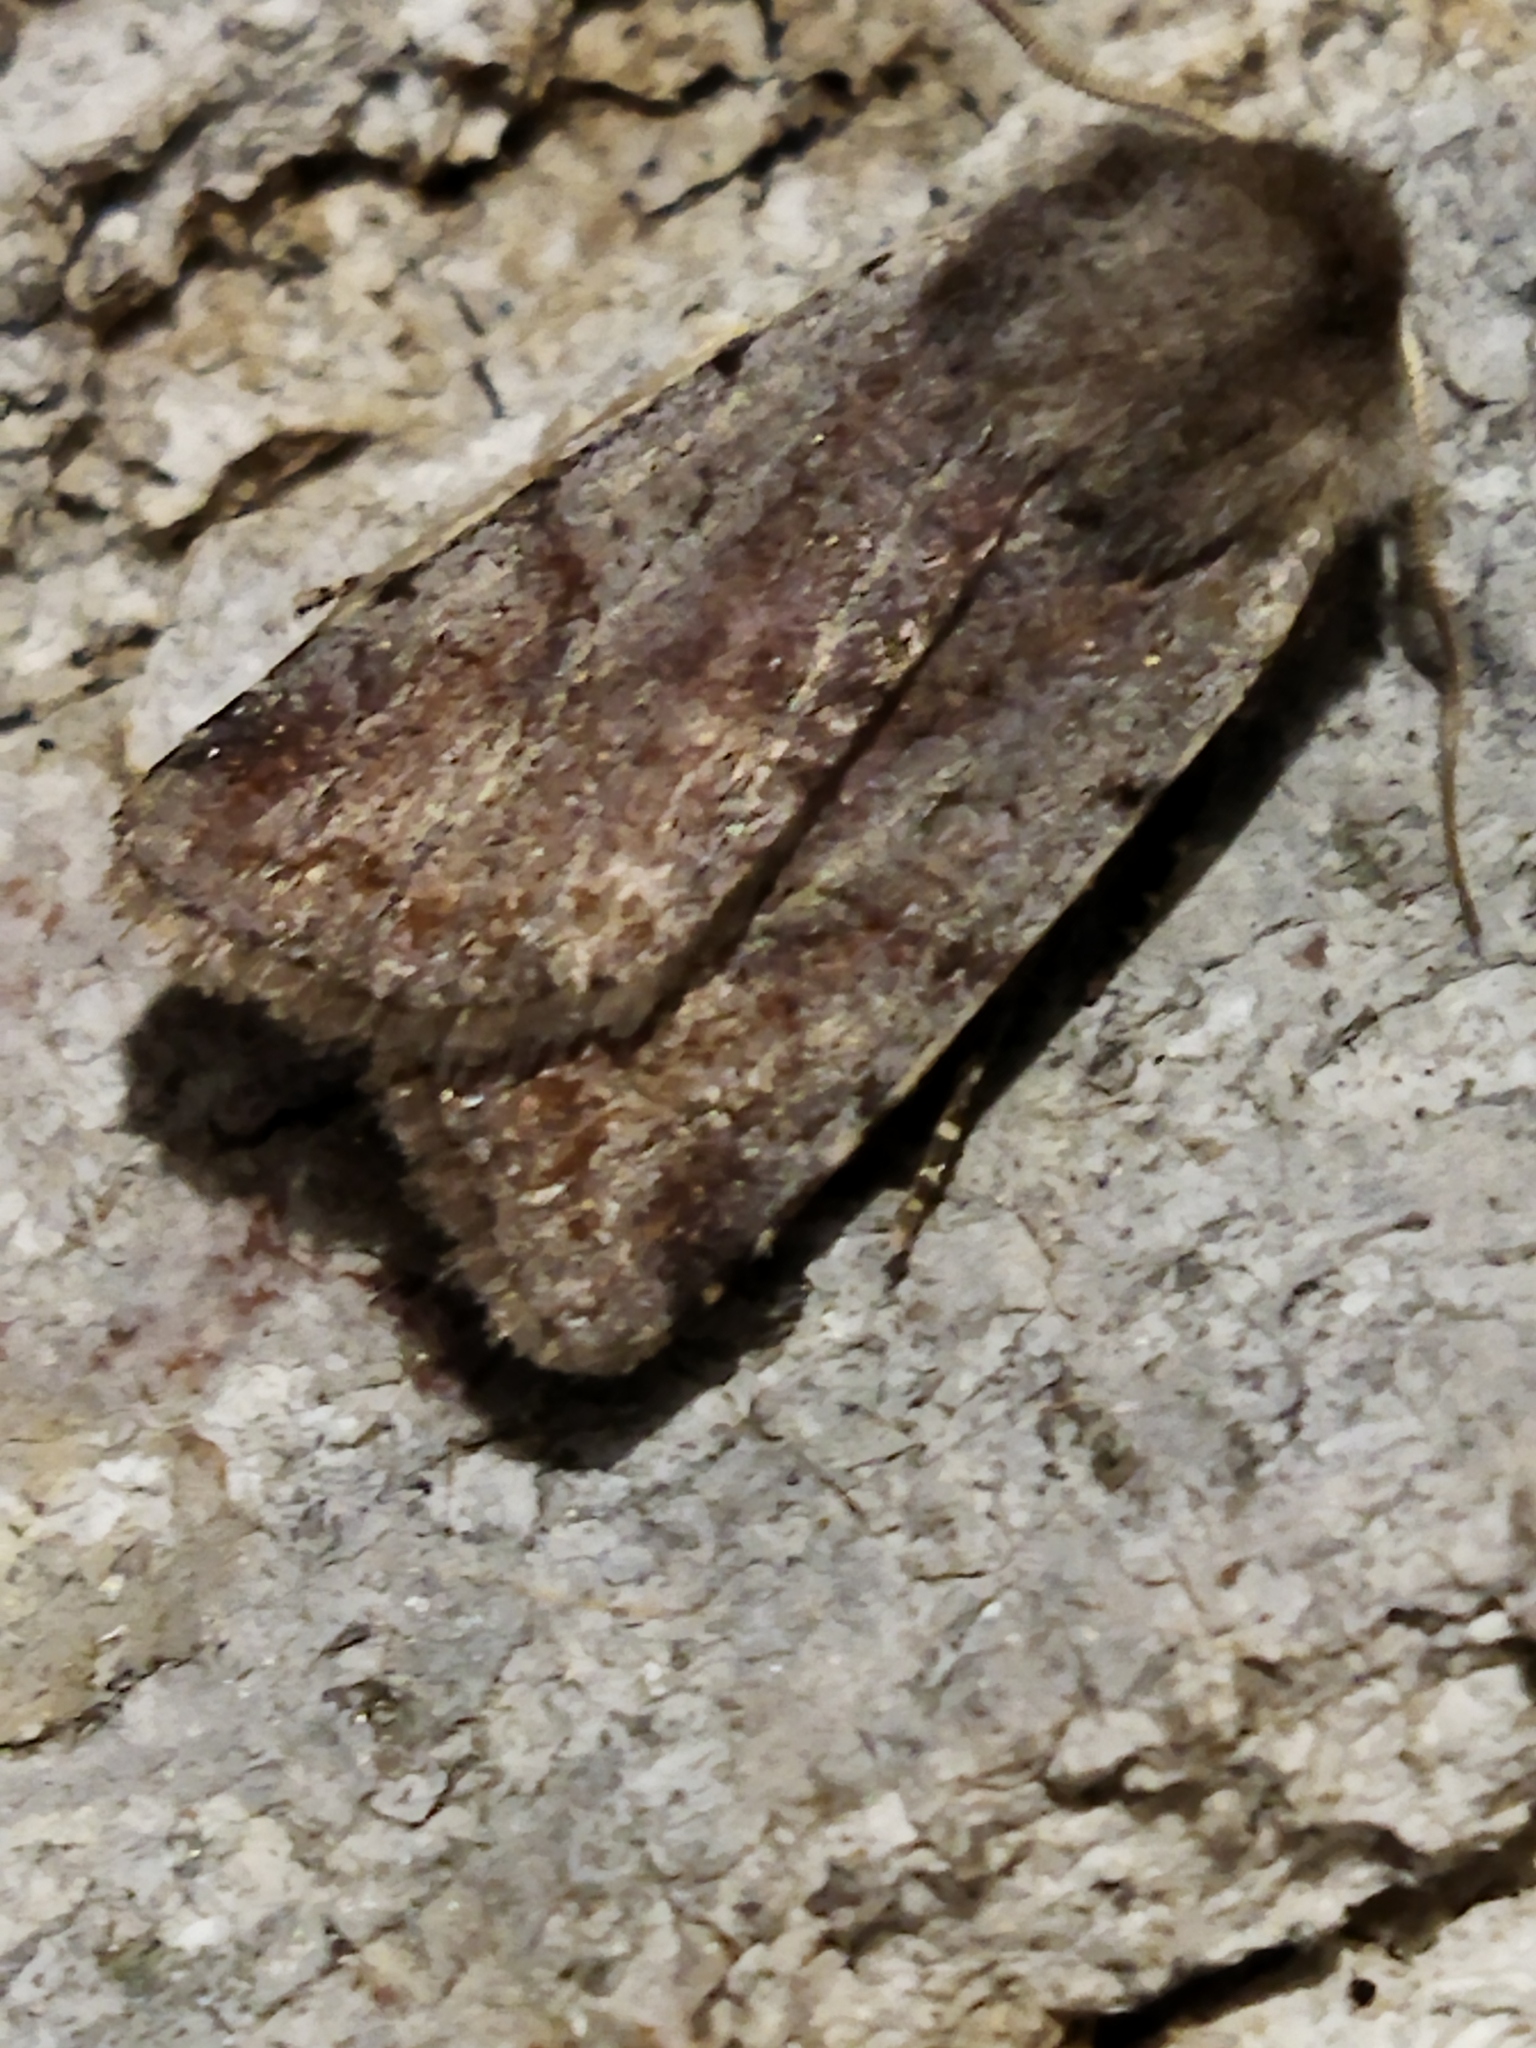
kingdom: Animalia
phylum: Arthropoda
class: Insecta
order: Lepidoptera
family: Noctuidae
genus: Cerastis
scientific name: Cerastis rubricosa
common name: Red chestnut
